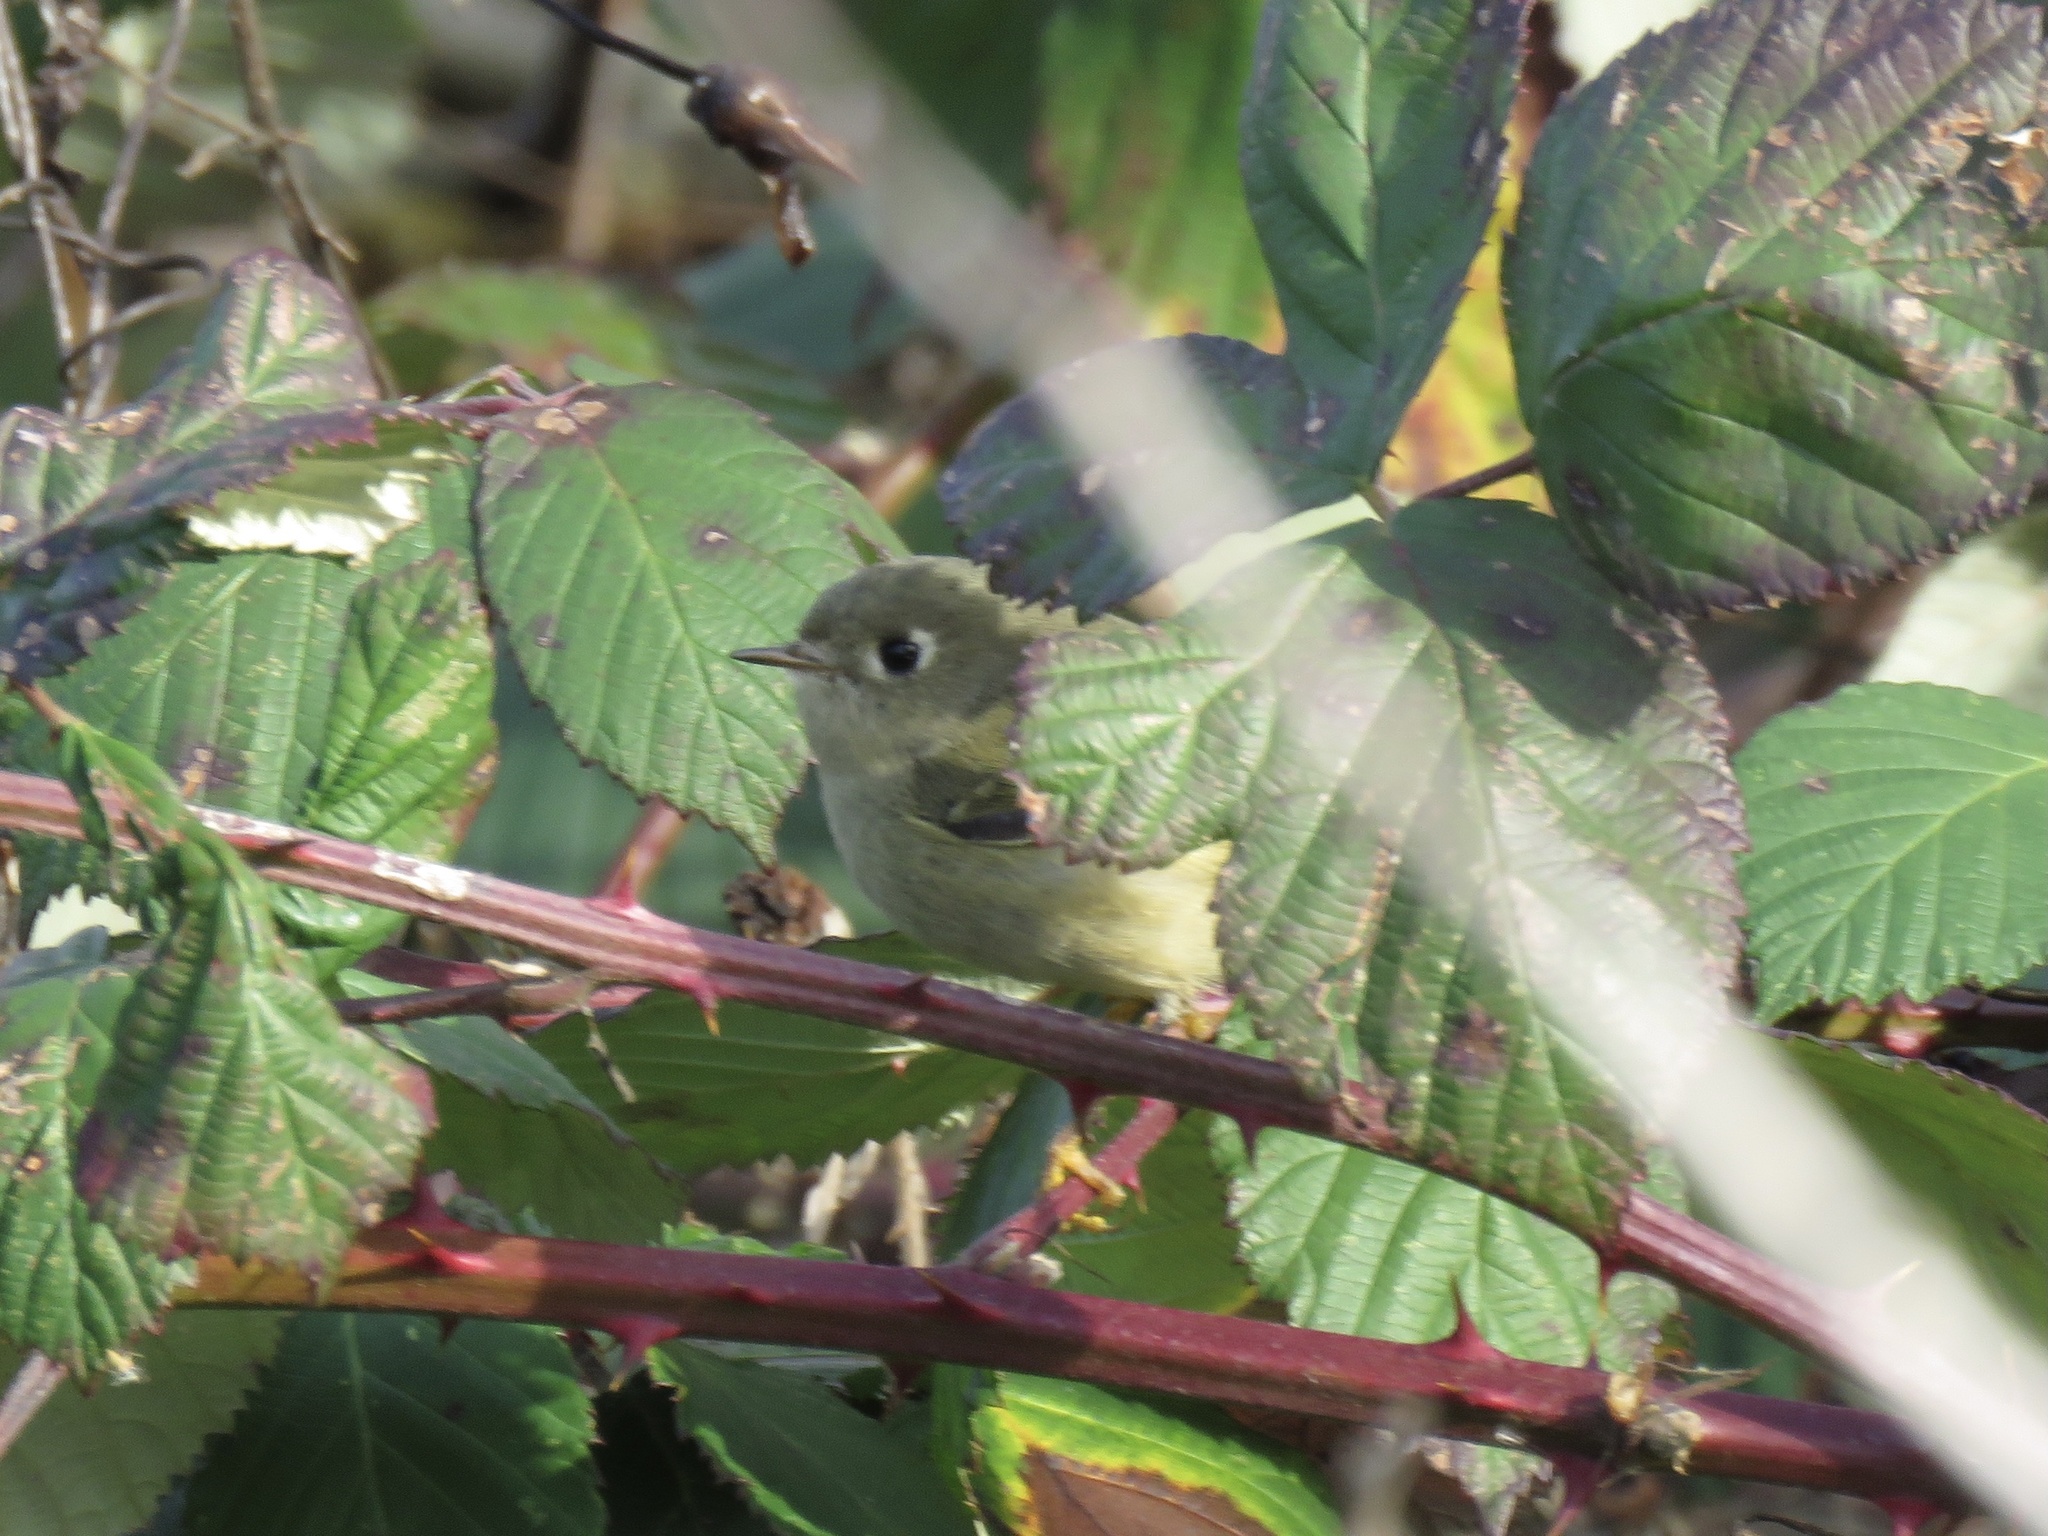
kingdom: Animalia
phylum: Chordata
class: Aves
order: Passeriformes
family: Regulidae
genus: Regulus
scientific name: Regulus calendula
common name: Ruby-crowned kinglet
